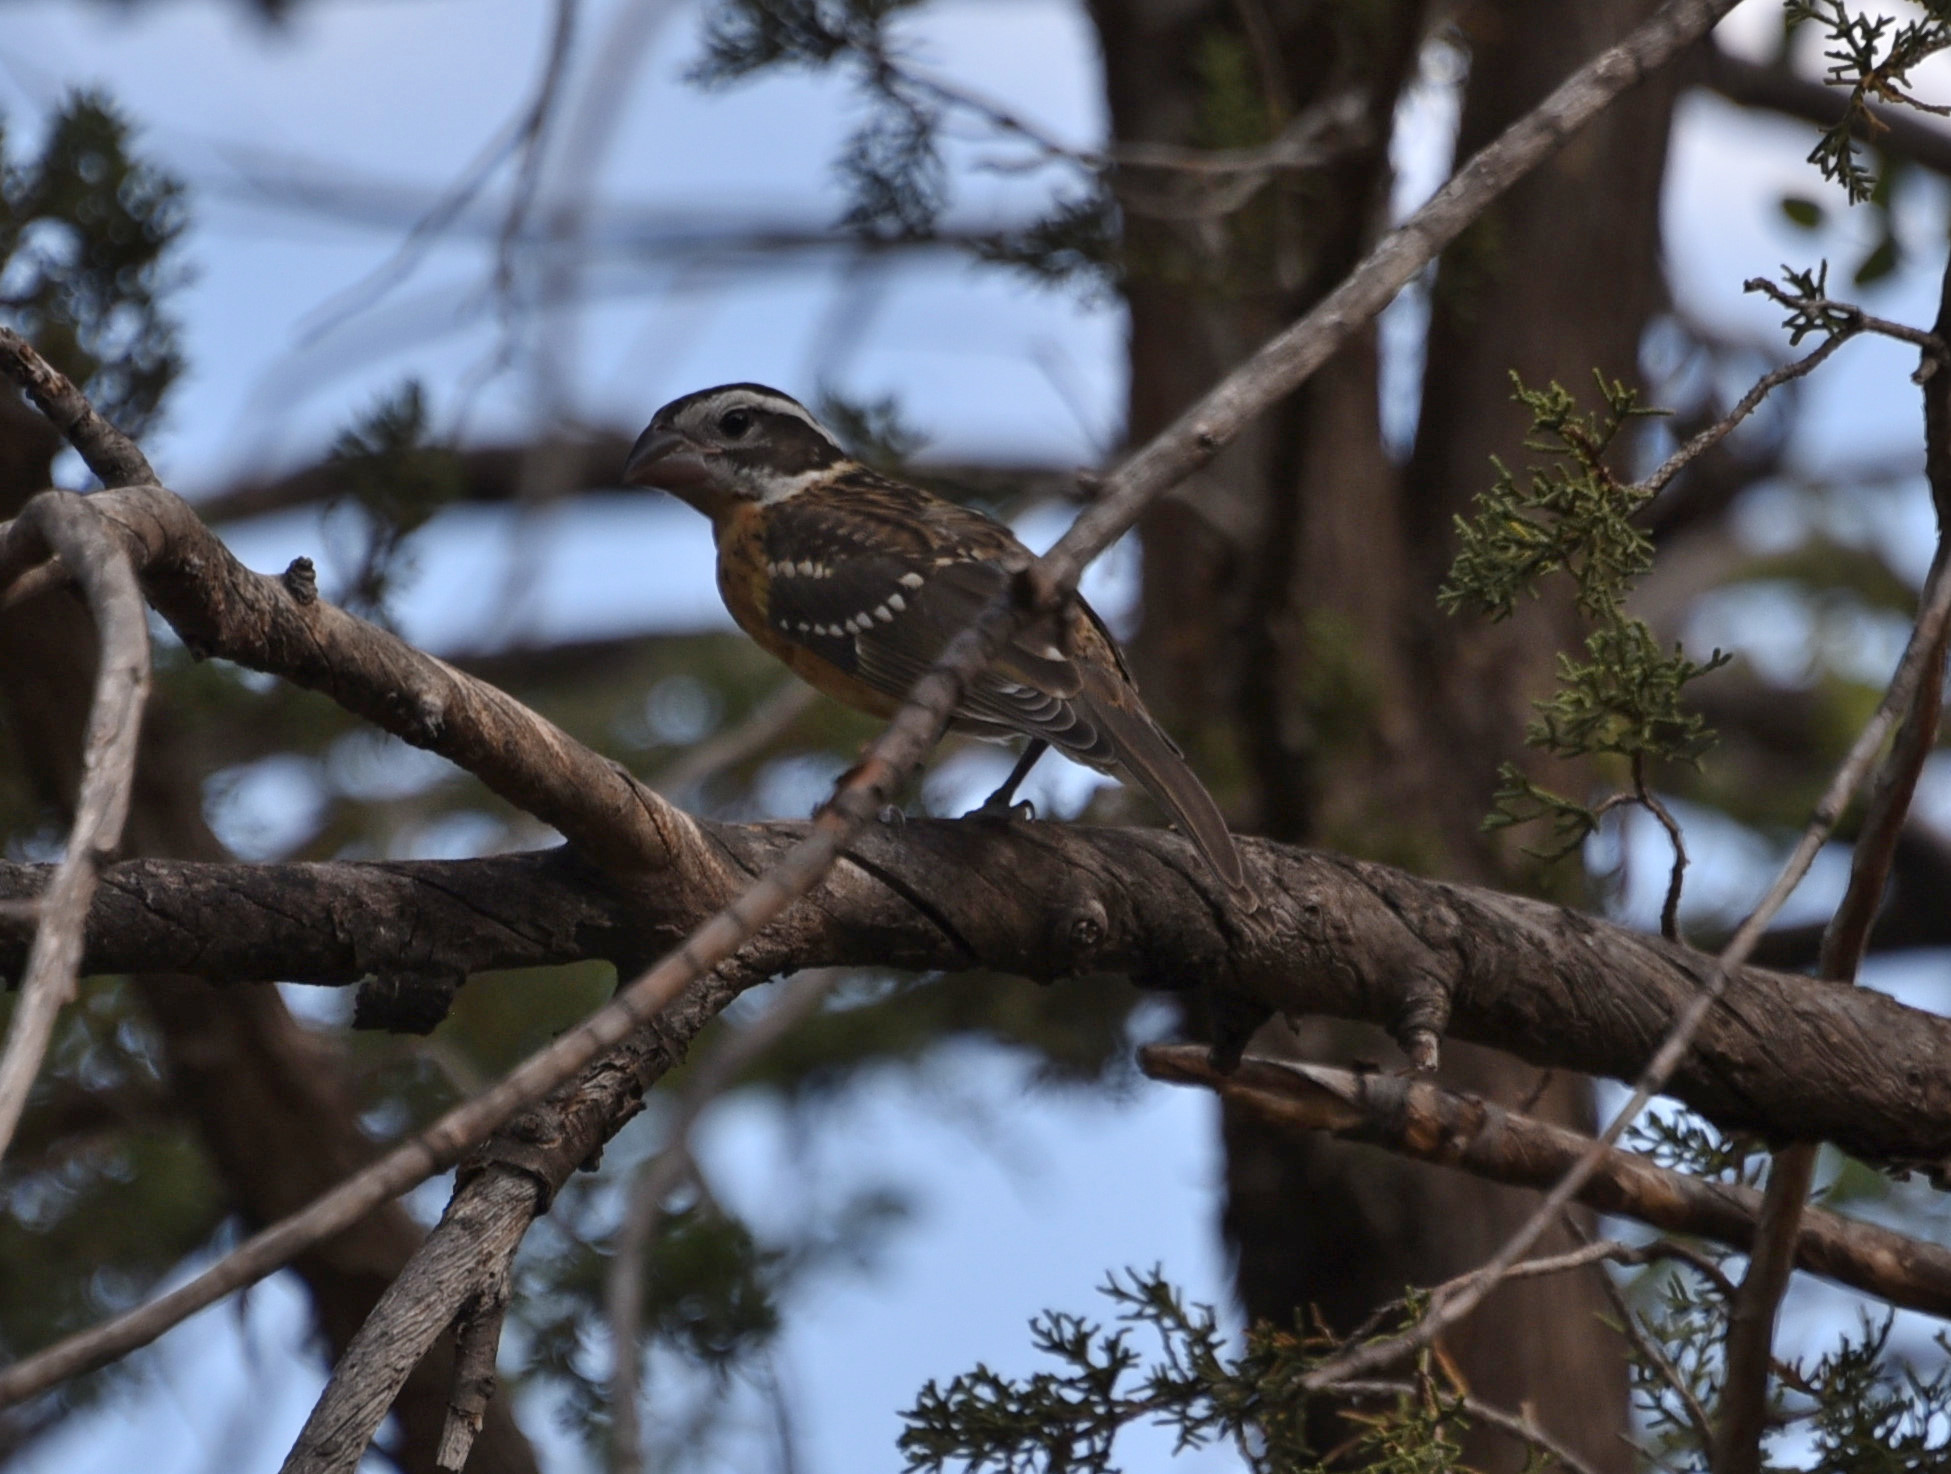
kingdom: Animalia
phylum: Chordata
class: Aves
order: Passeriformes
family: Cardinalidae
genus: Pheucticus
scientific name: Pheucticus melanocephalus
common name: Black-headed grosbeak
